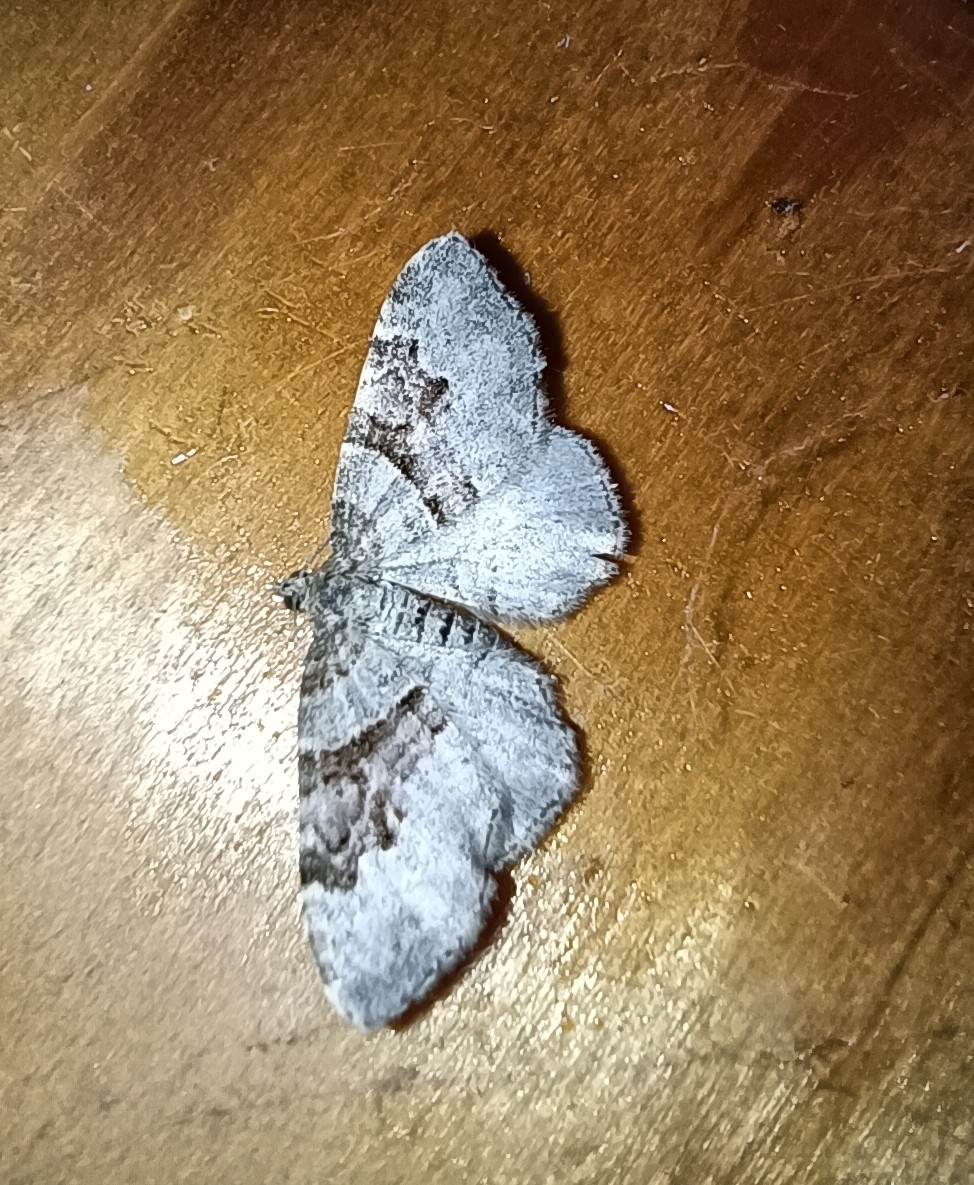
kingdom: Animalia
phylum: Arthropoda
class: Insecta
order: Lepidoptera
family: Geometridae
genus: Xanthorhoe
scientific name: Xanthorhoe designata
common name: Flame carpet
